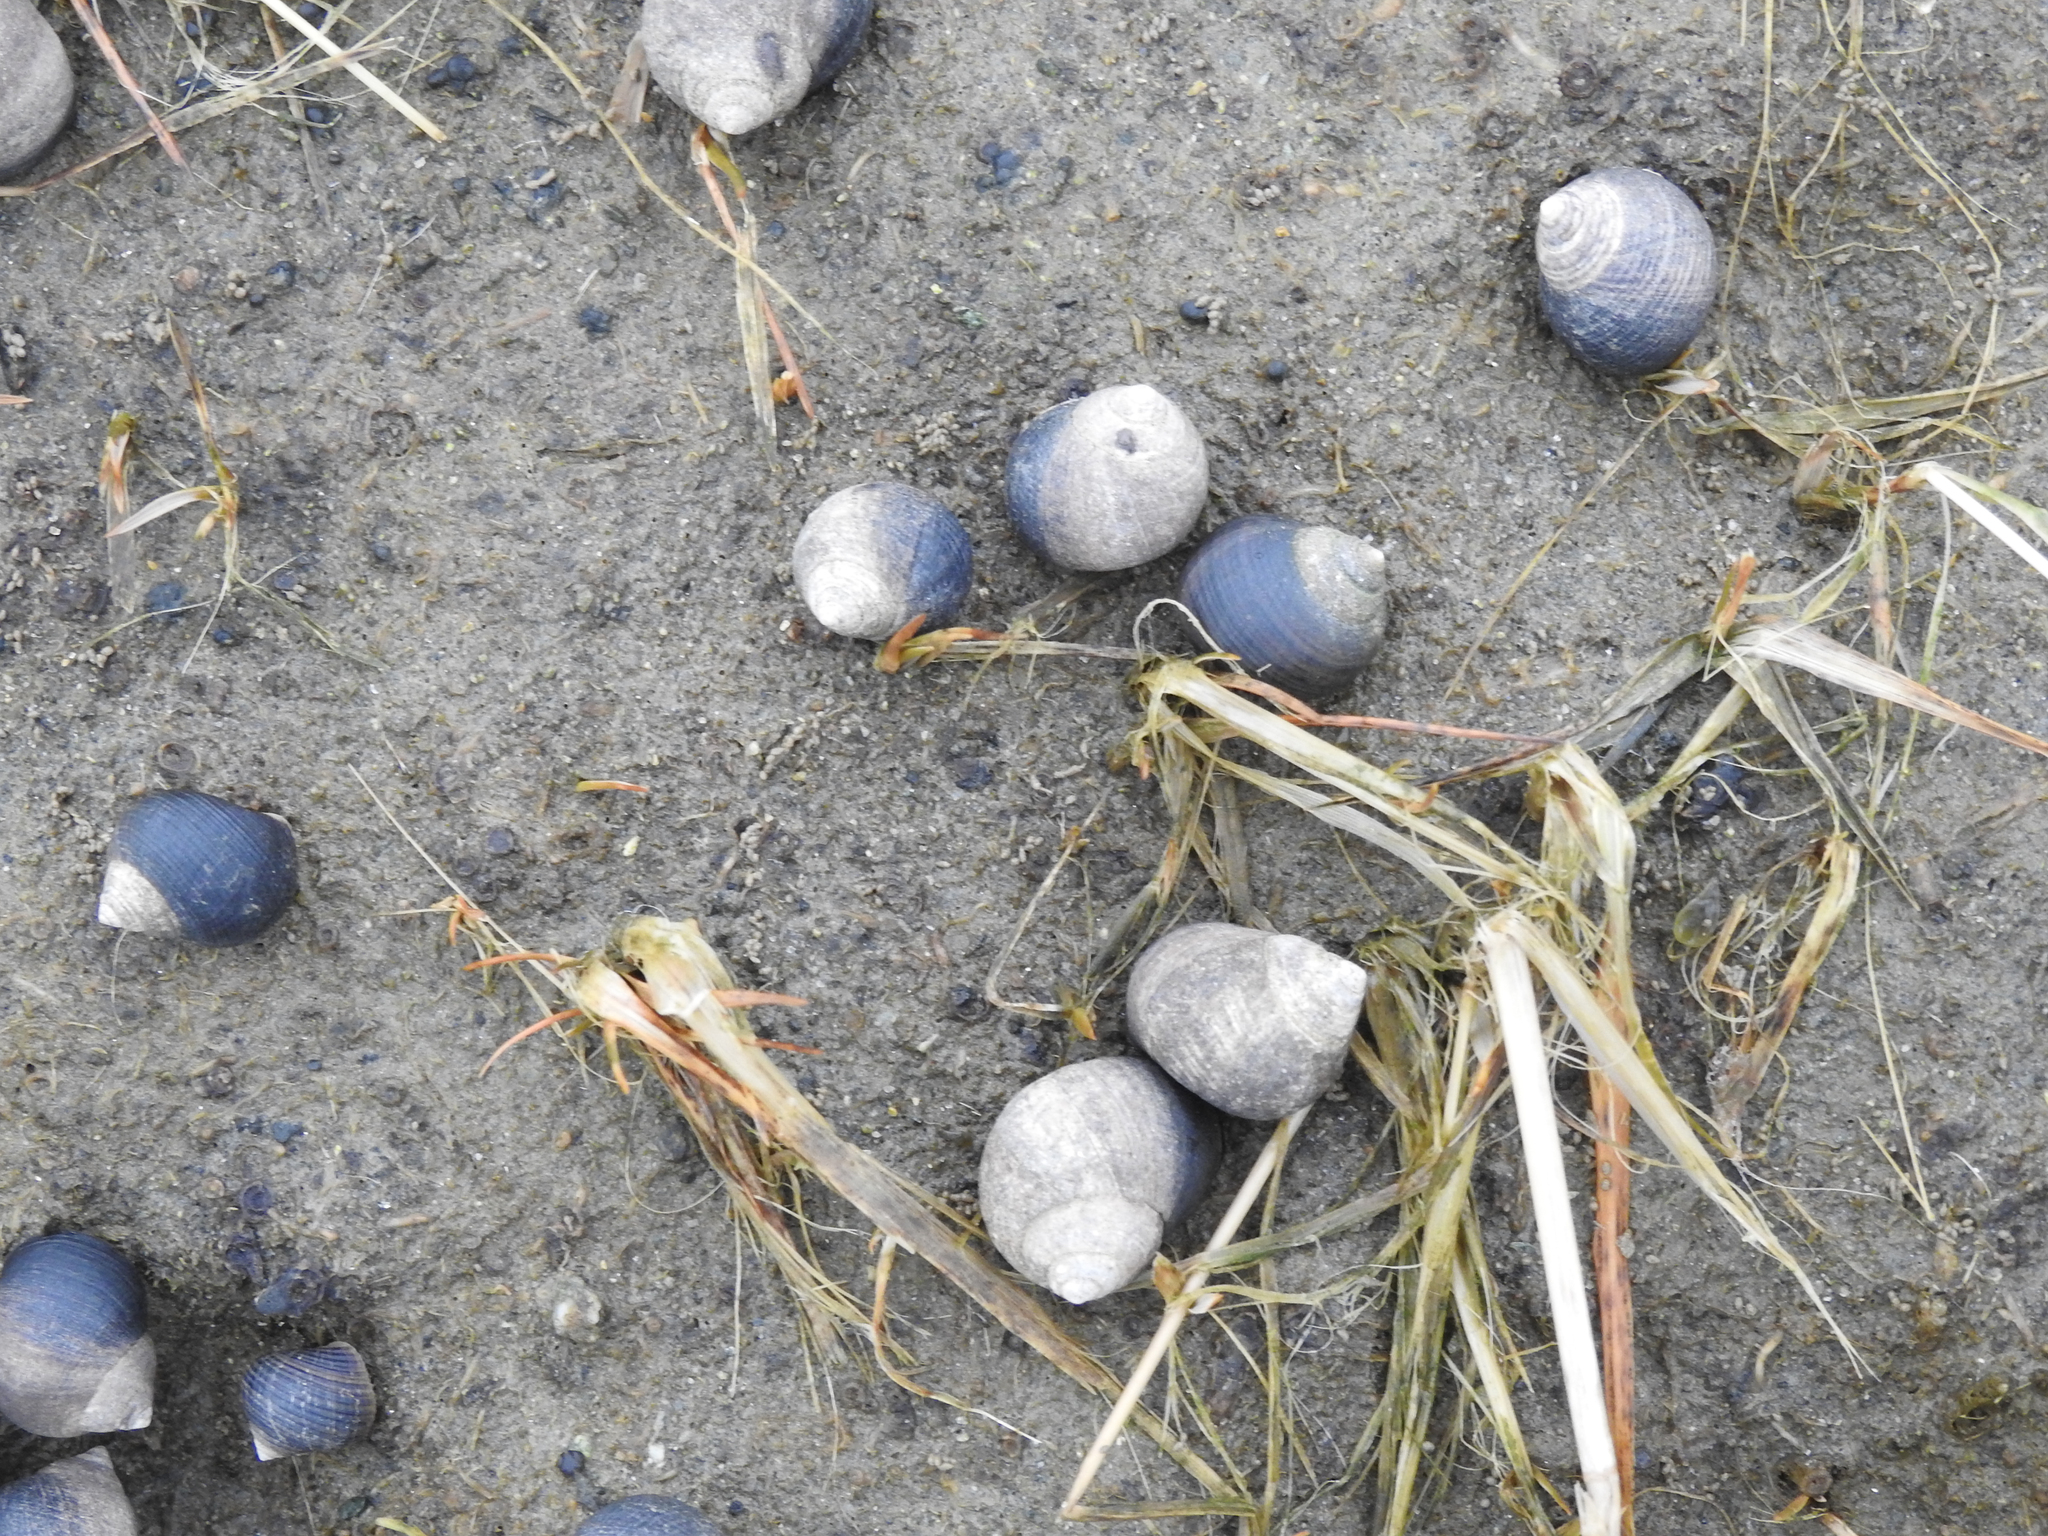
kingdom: Animalia
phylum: Mollusca
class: Gastropoda
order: Littorinimorpha
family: Littorinidae
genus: Littorina
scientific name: Littorina littorea
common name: Common periwinkle
